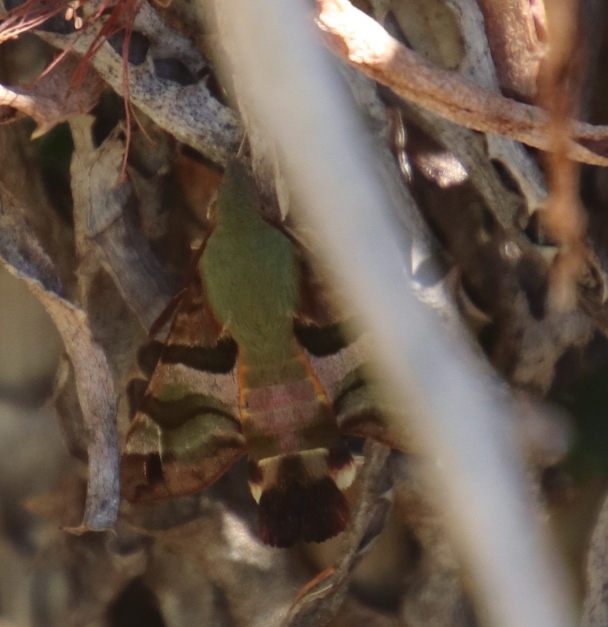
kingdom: Animalia
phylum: Arthropoda
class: Insecta
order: Lepidoptera
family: Sphingidae
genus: Macroglossum
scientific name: Macroglossum trochilus
